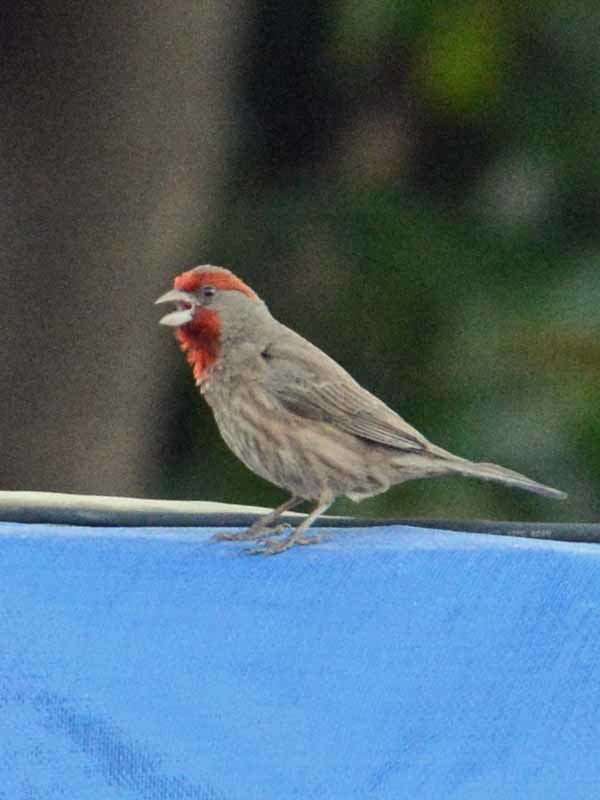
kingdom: Animalia
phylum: Chordata
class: Aves
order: Passeriformes
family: Fringillidae
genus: Haemorhous
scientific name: Haemorhous mexicanus
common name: House finch
